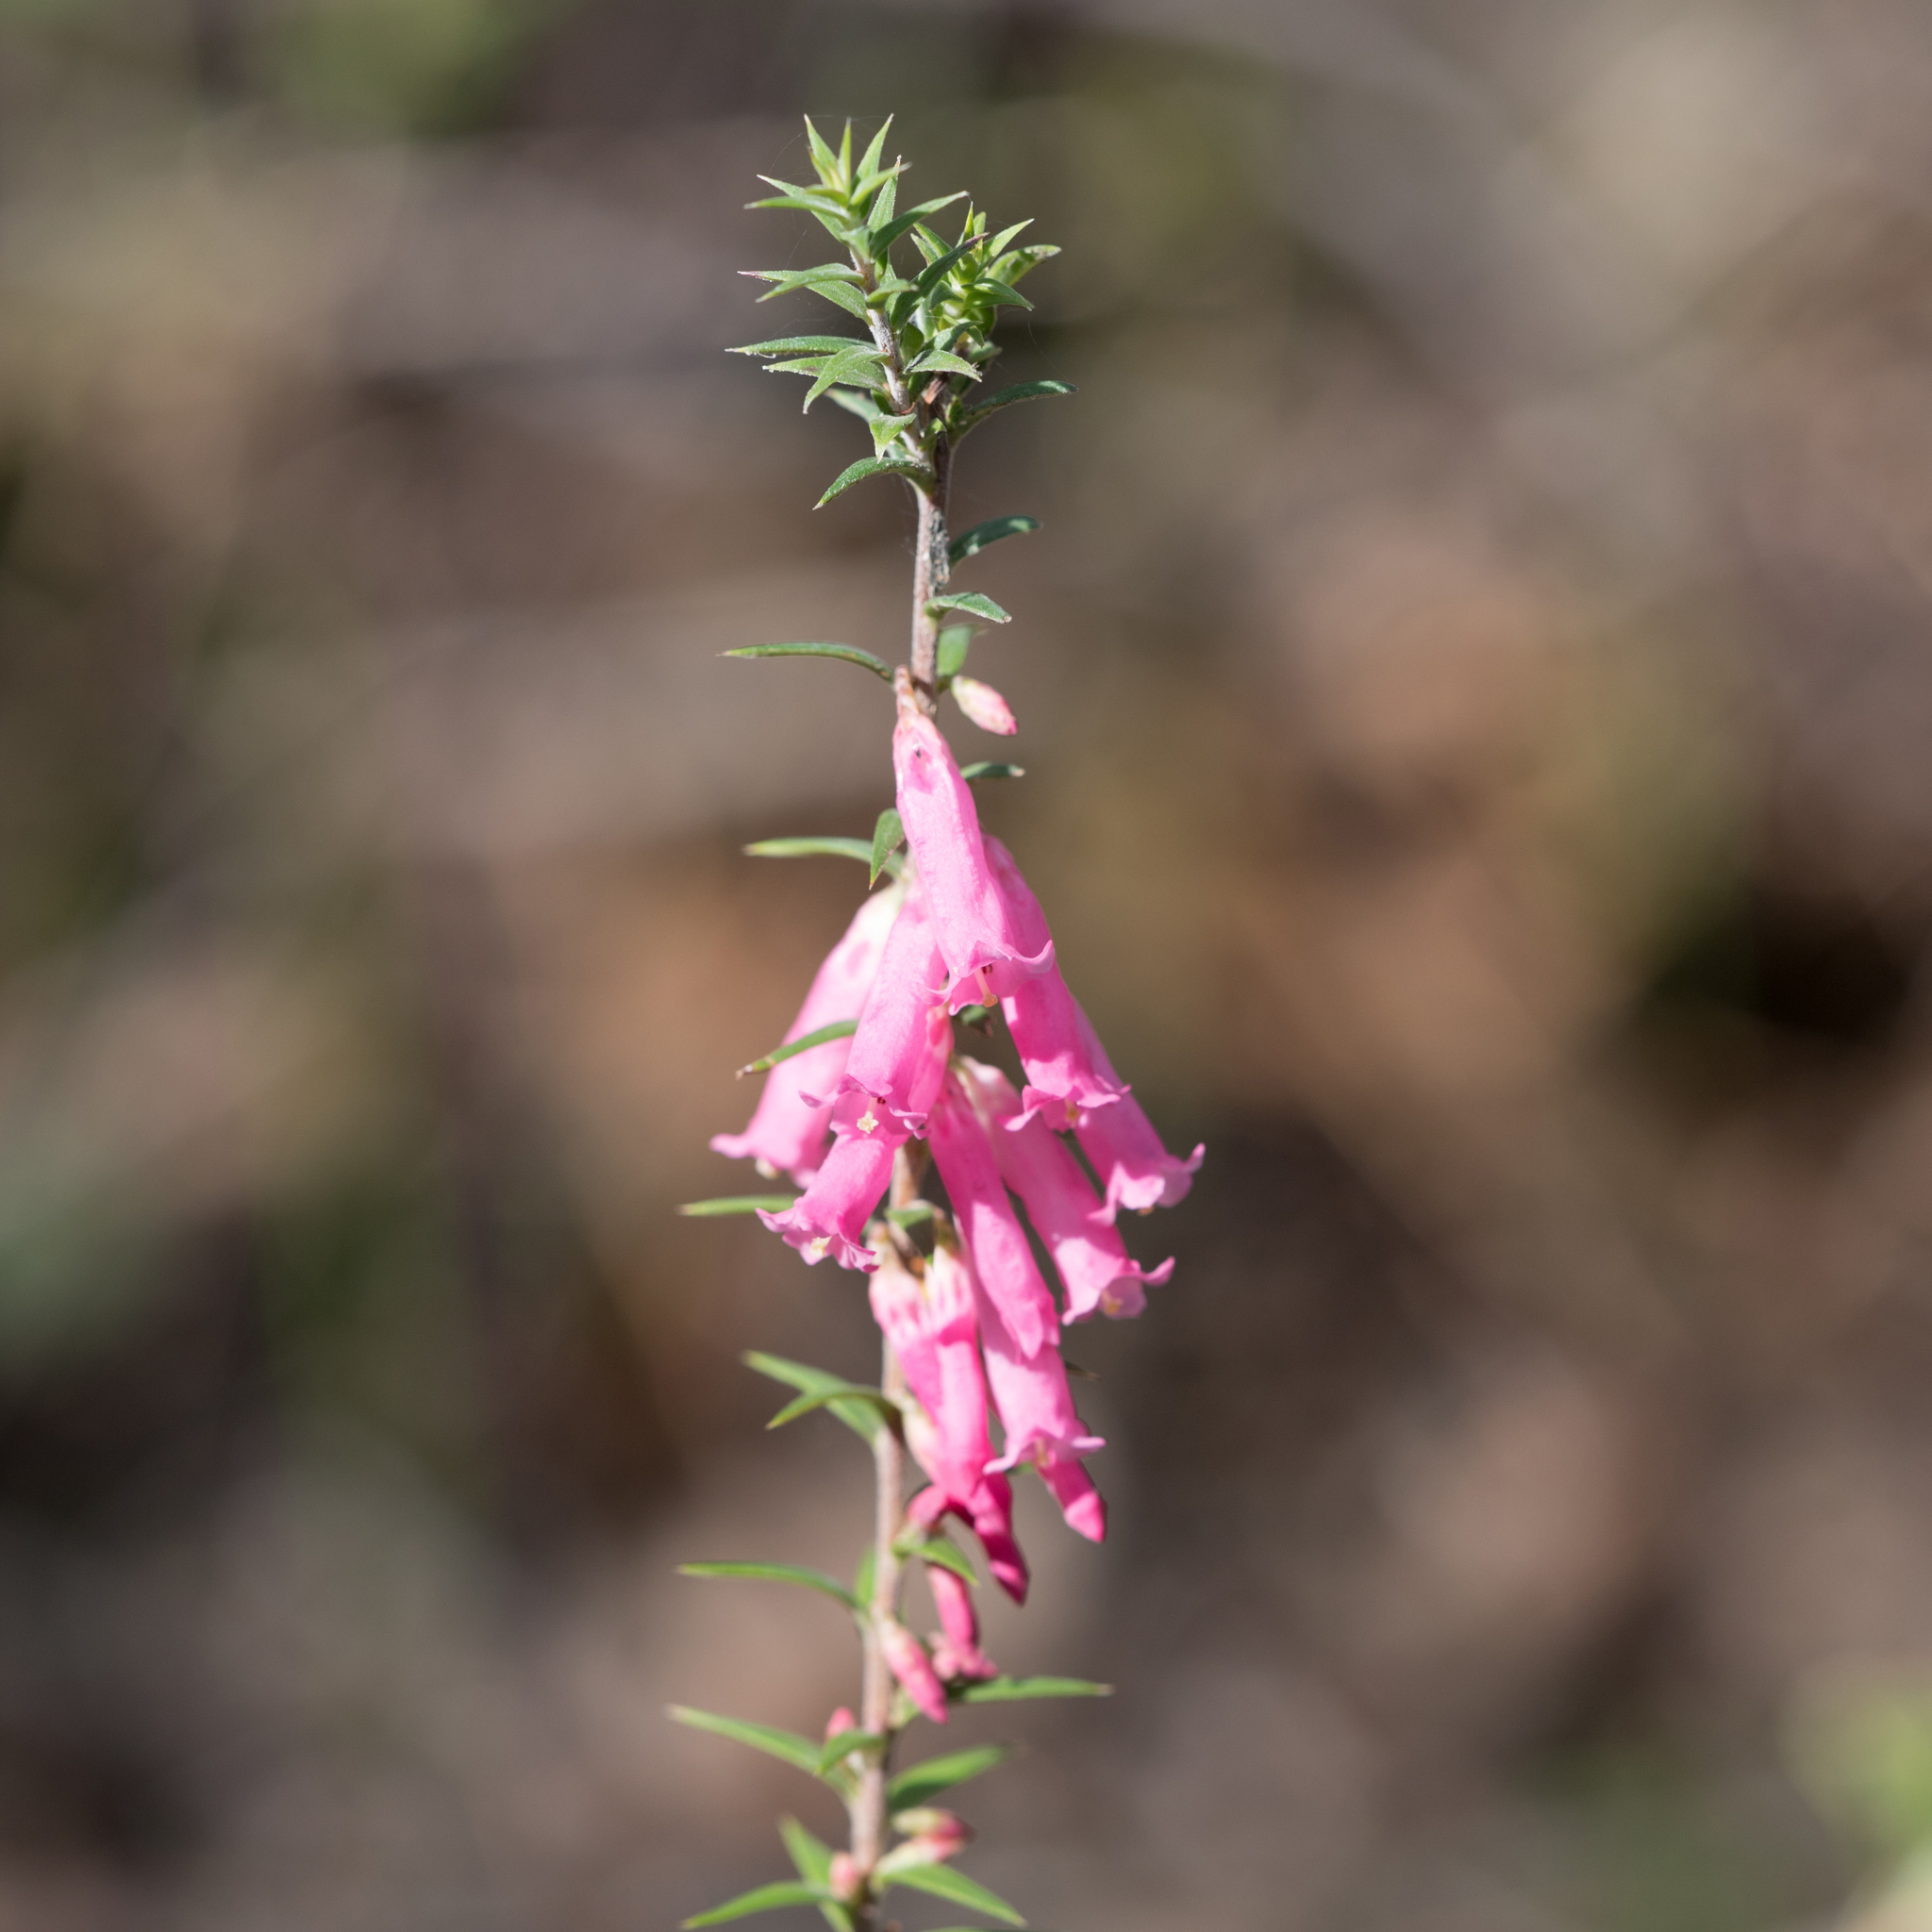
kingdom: Plantae
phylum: Tracheophyta
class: Magnoliopsida
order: Ericales
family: Ericaceae
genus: Epacris
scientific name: Epacris impressa
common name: Common-heath
